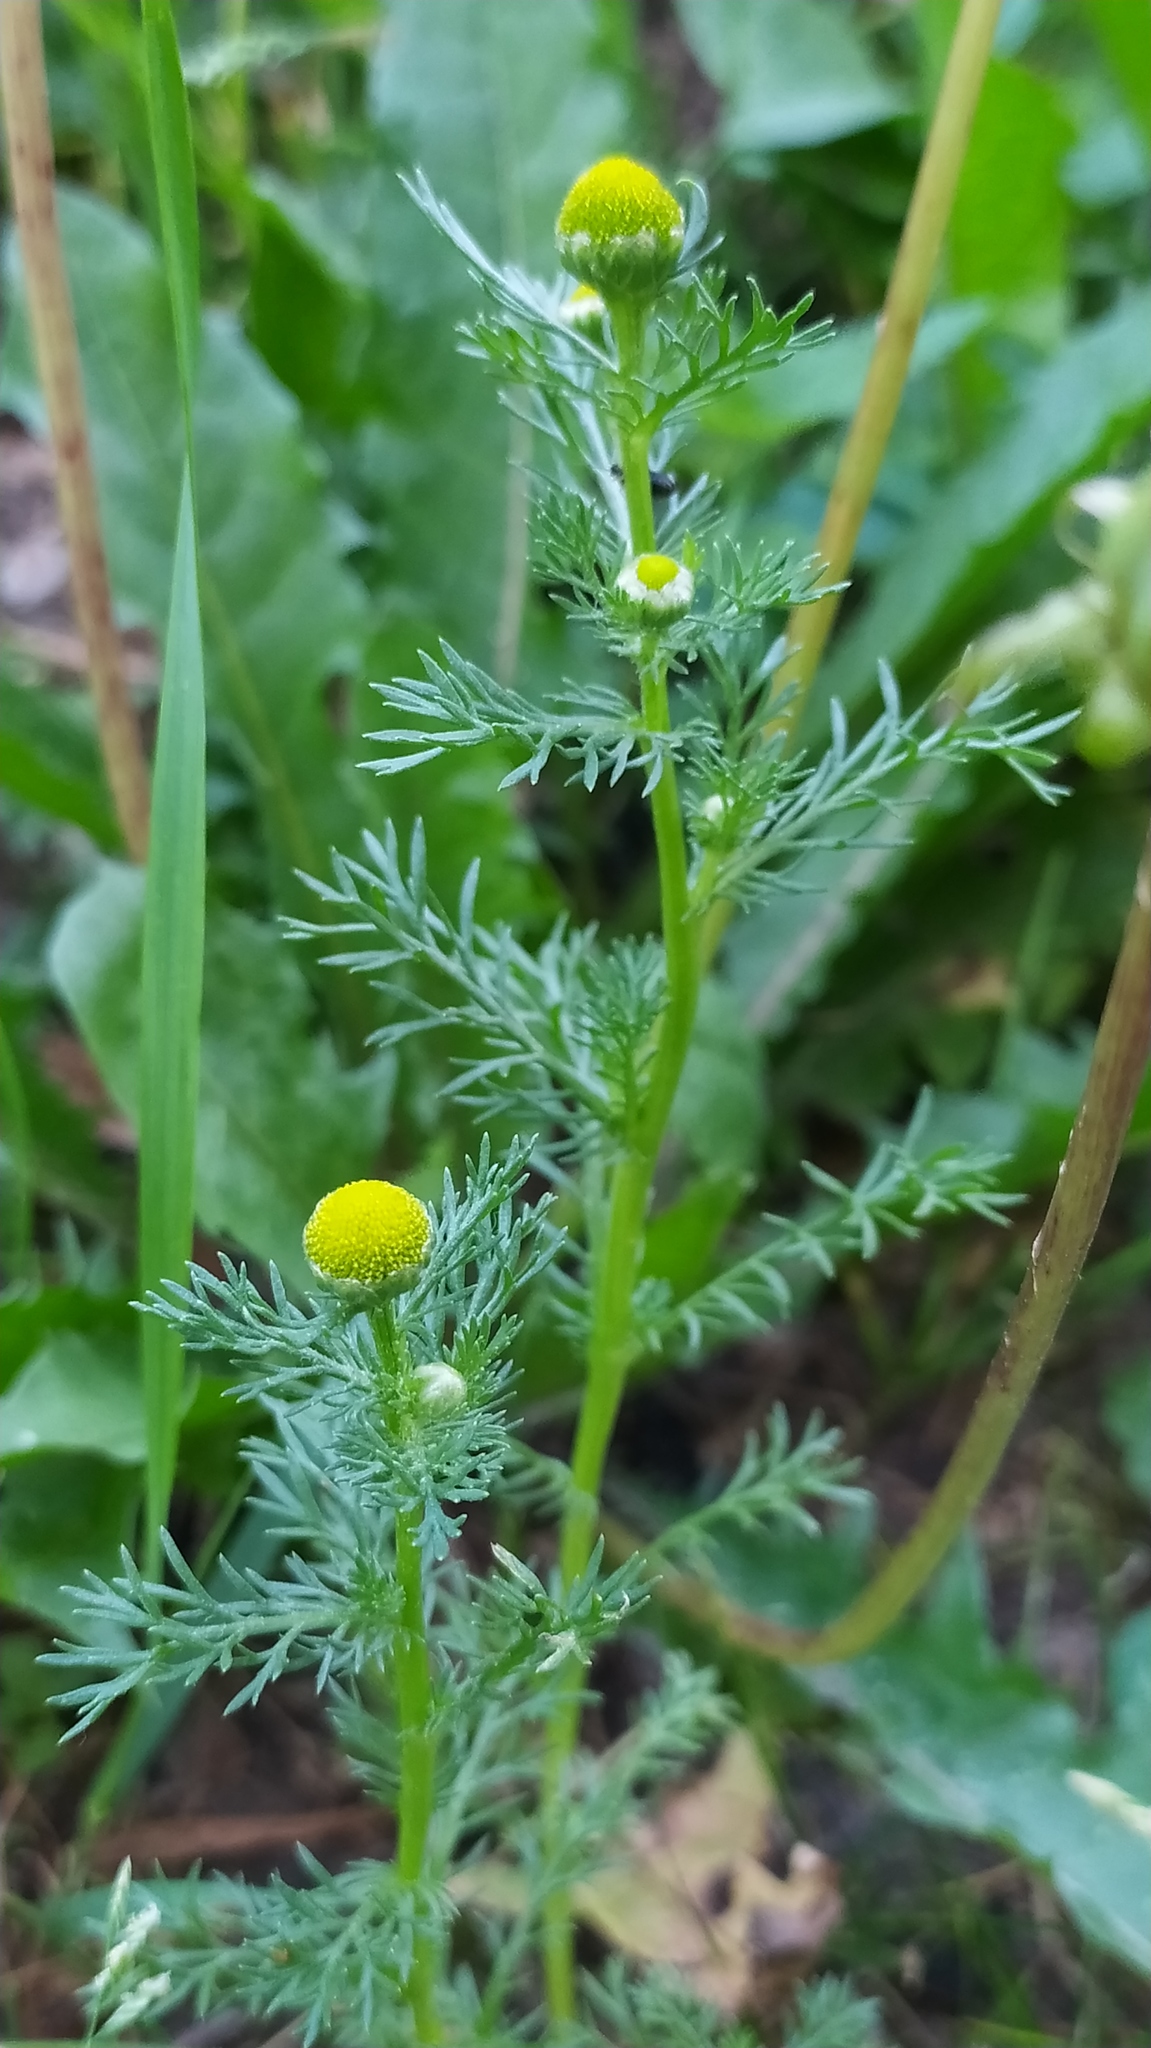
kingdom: Plantae
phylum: Tracheophyta
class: Magnoliopsida
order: Asterales
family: Asteraceae
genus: Matricaria
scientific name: Matricaria discoidea
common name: Disc mayweed
